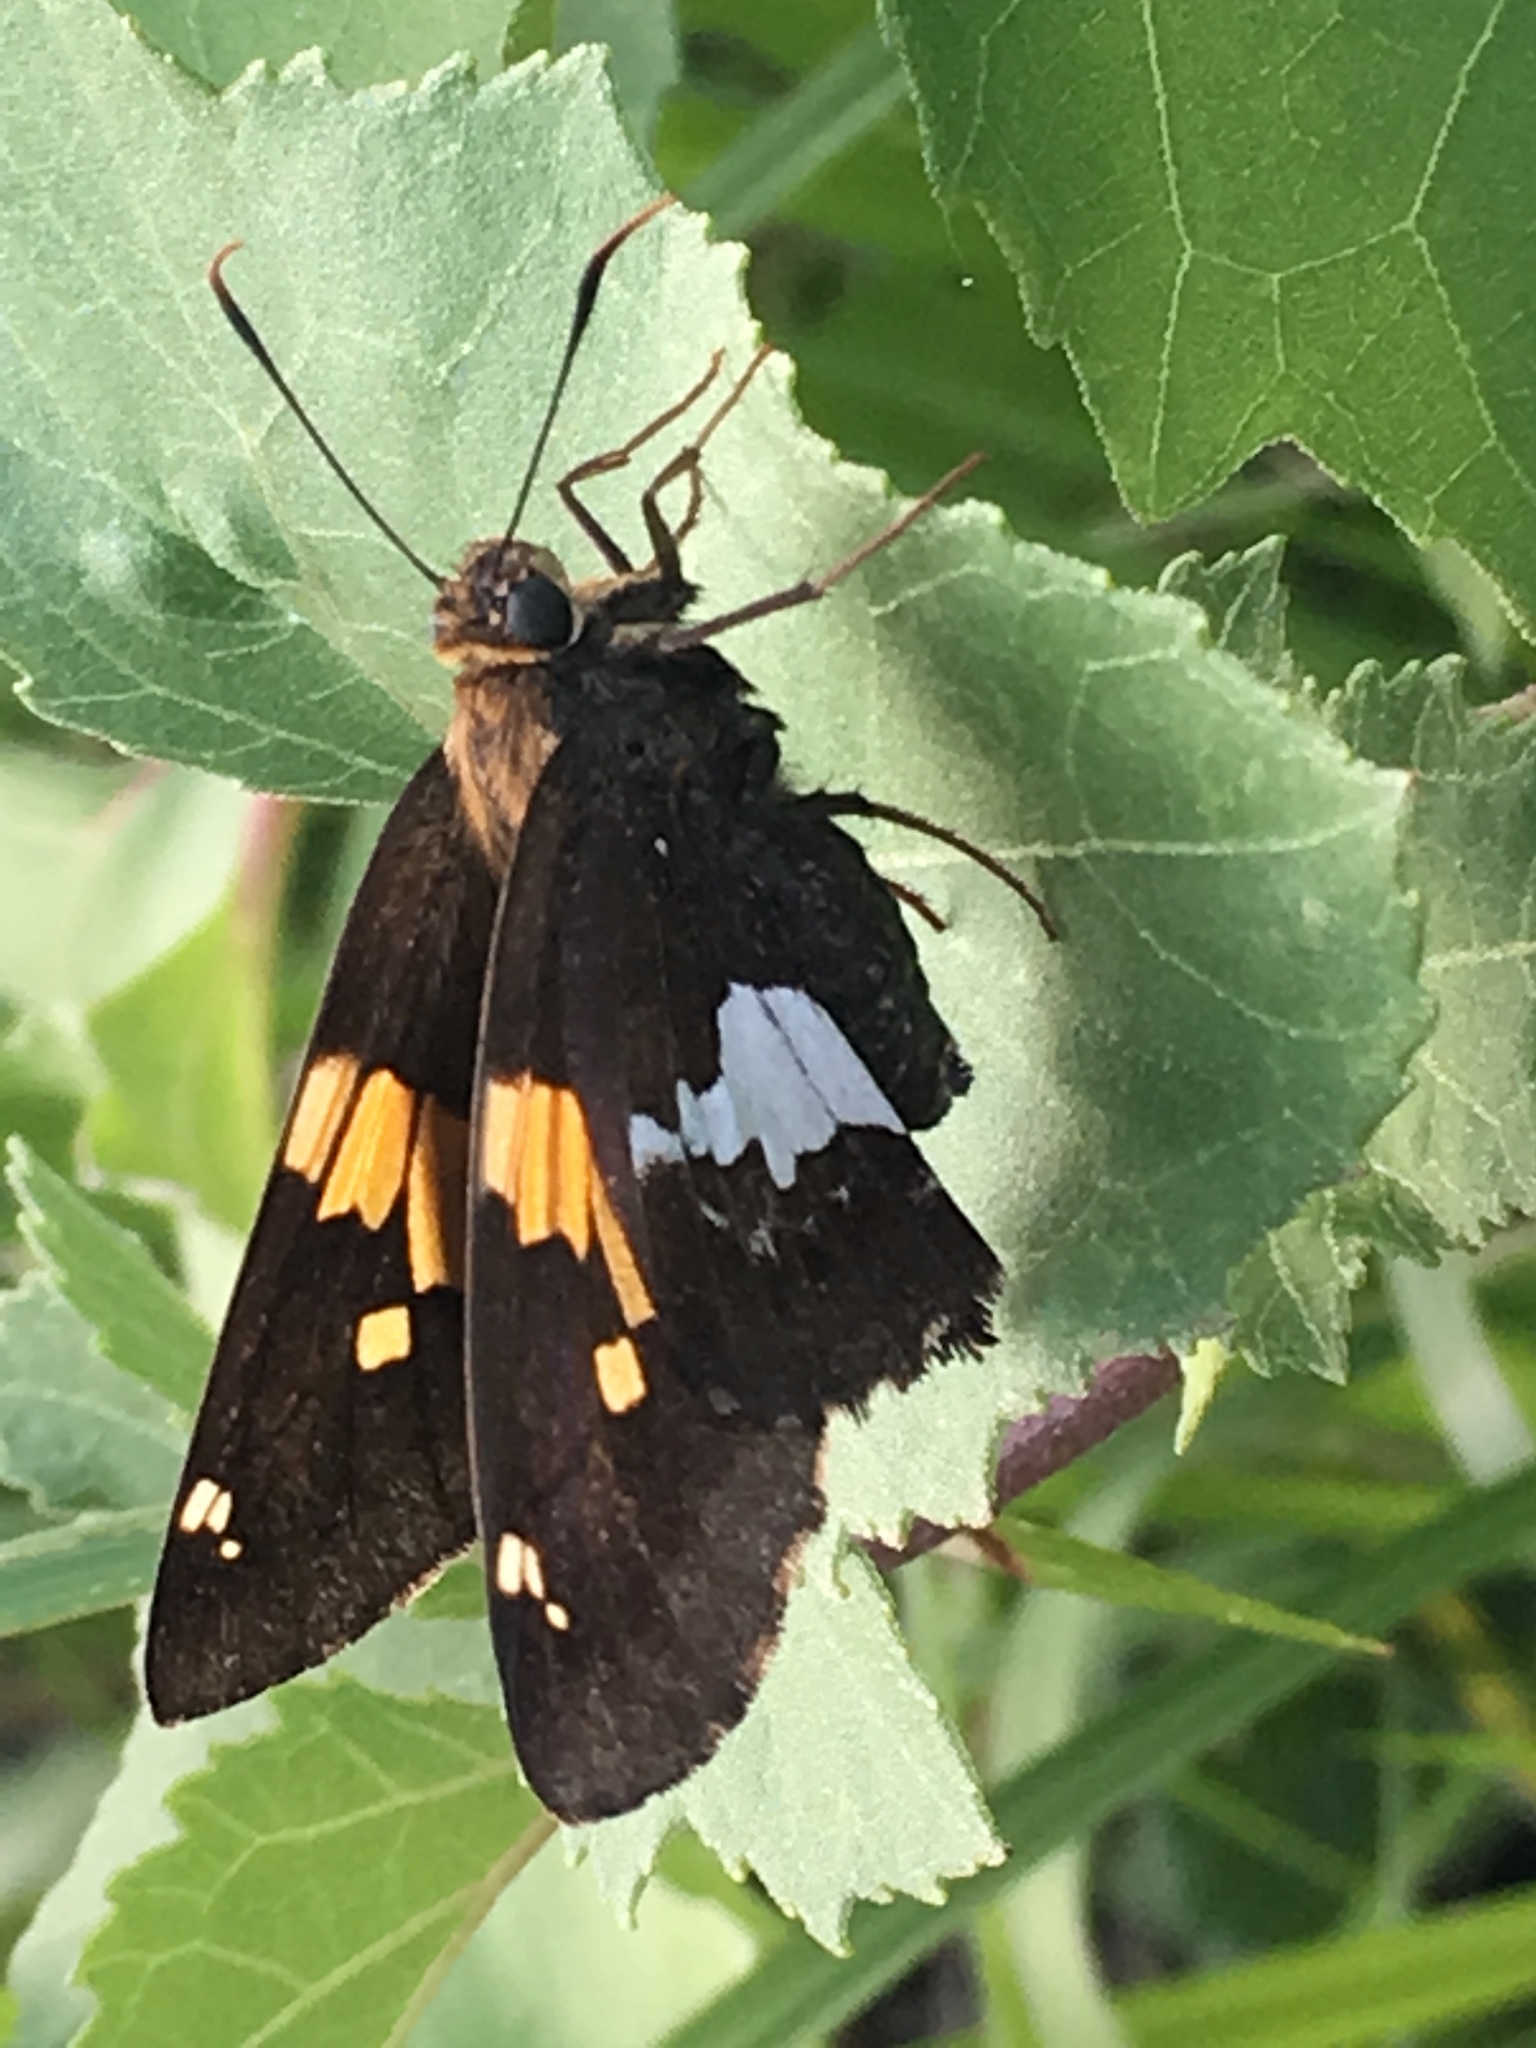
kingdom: Animalia
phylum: Arthropoda
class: Insecta
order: Lepidoptera
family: Hesperiidae
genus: Epargyreus
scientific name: Epargyreus clarus
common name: Silver-spotted skipper
